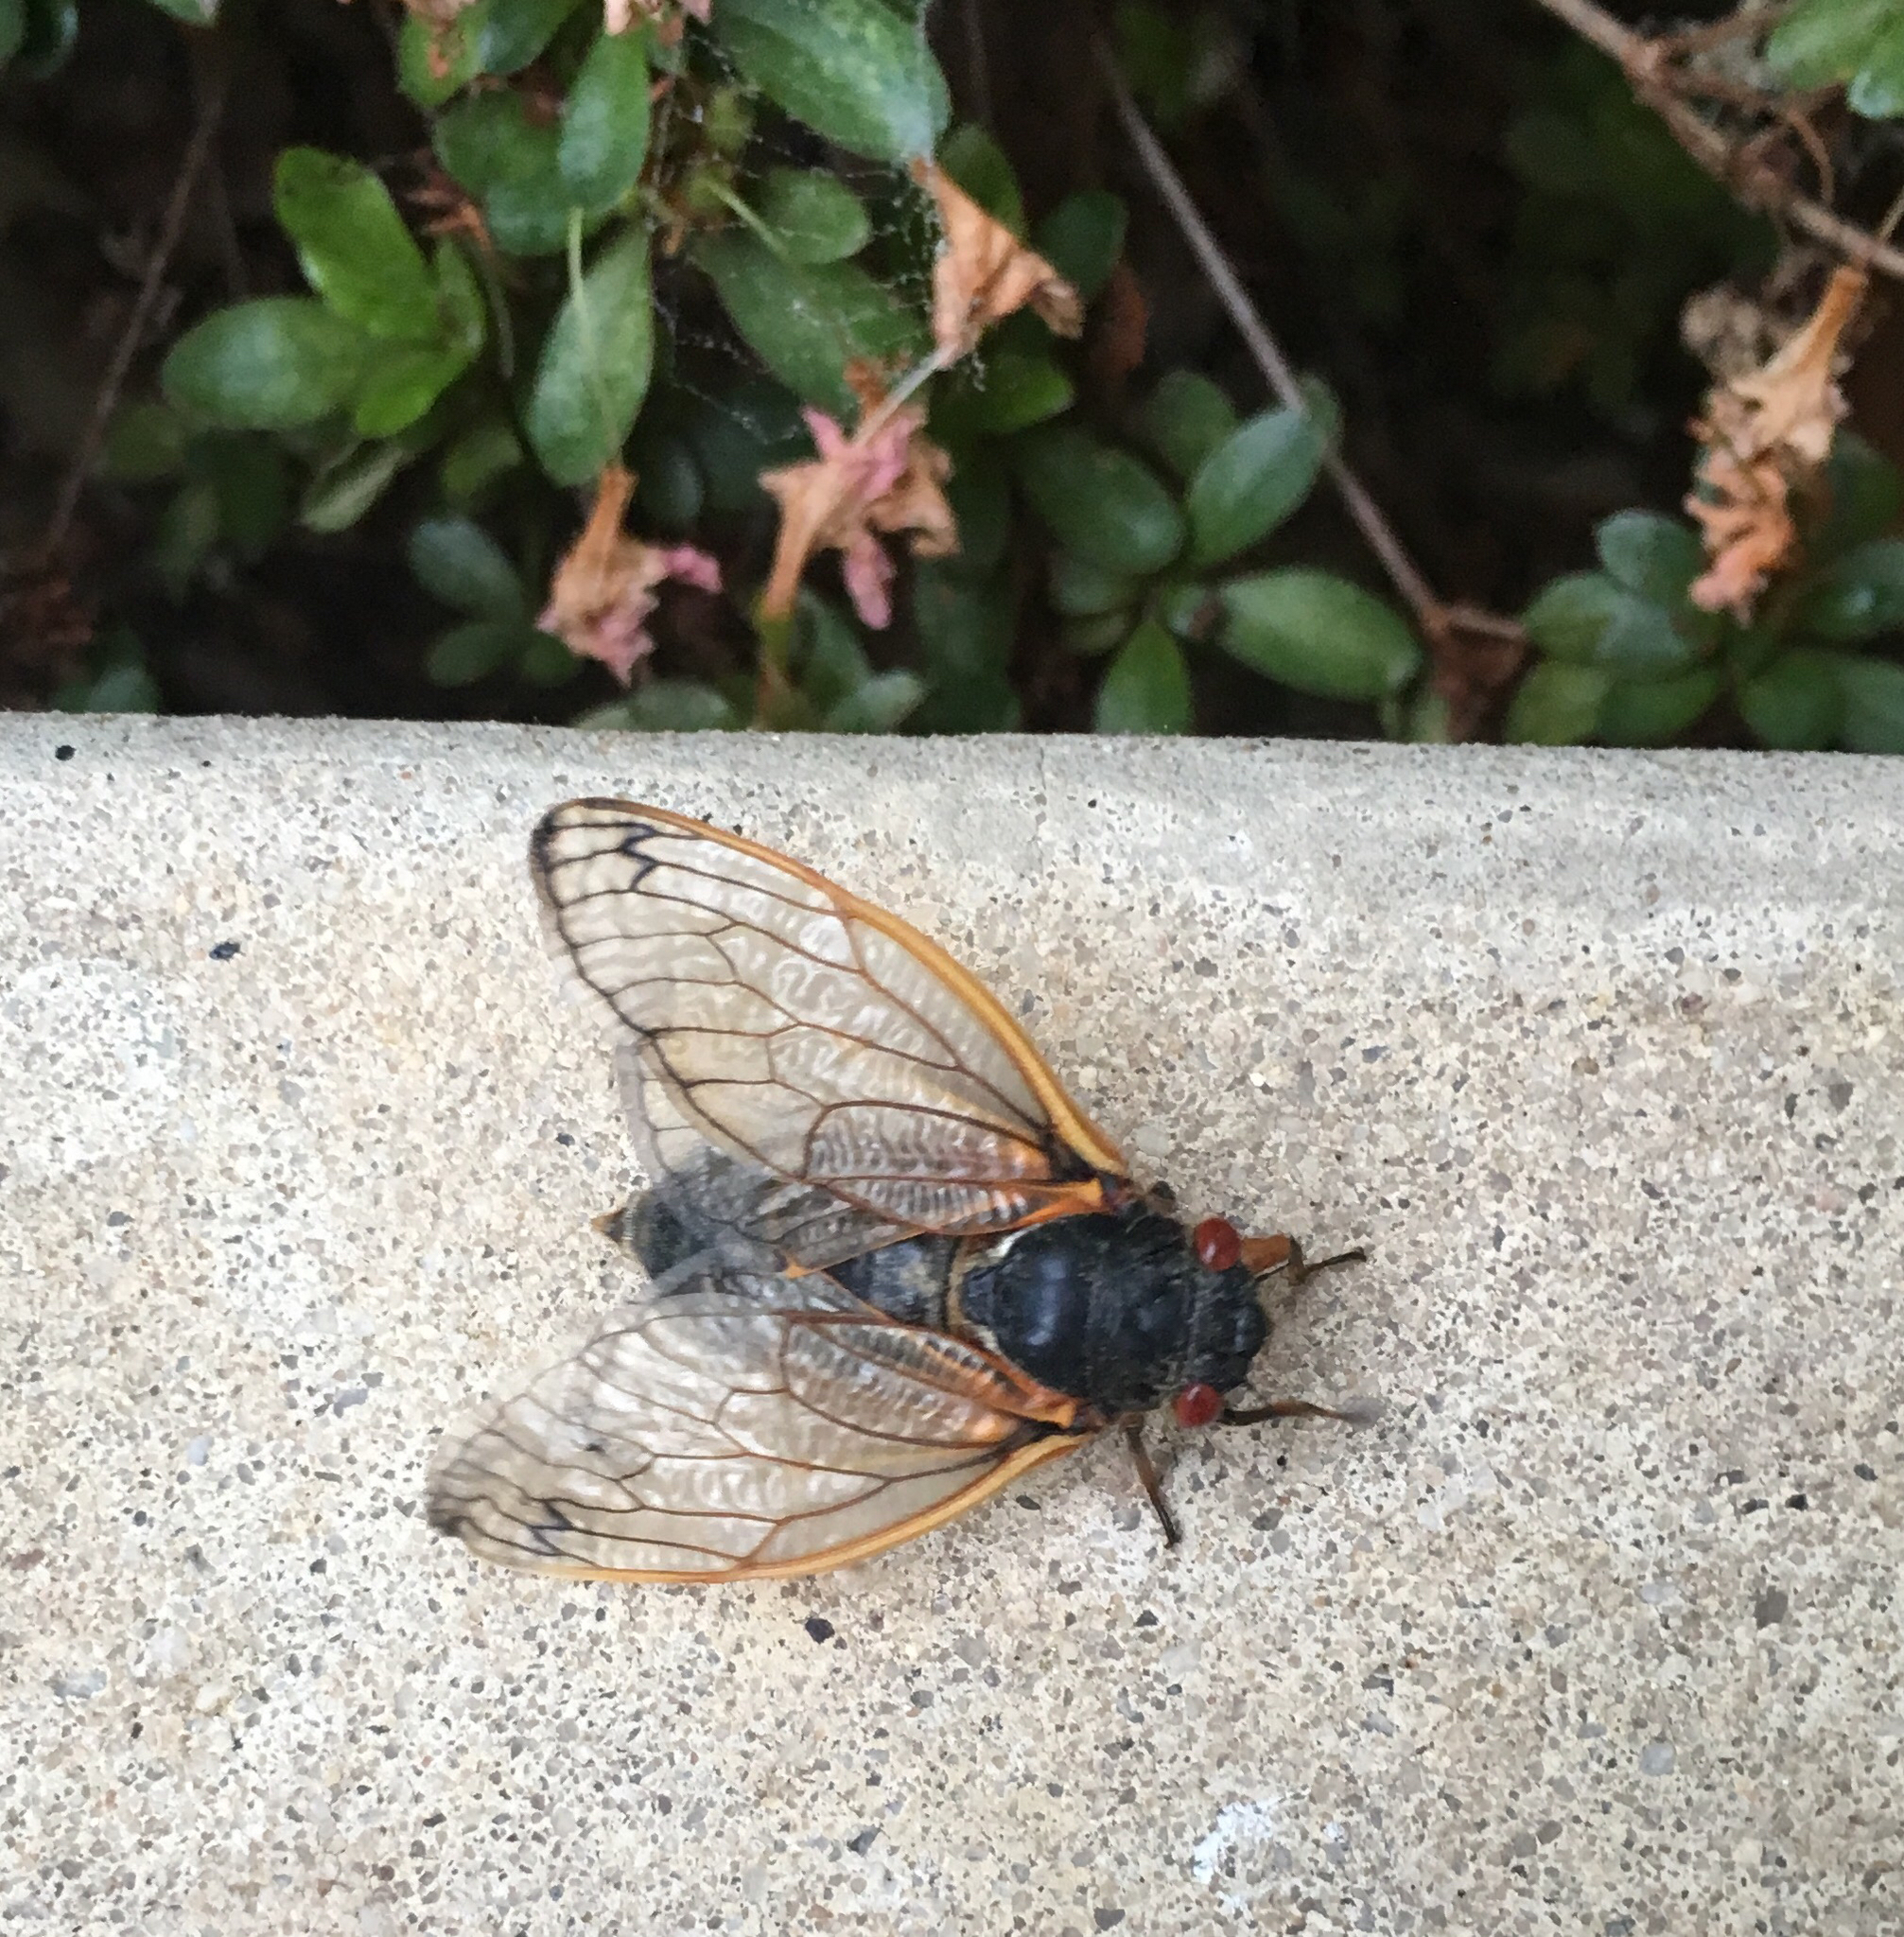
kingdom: Animalia
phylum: Arthropoda
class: Insecta
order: Hemiptera
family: Cicadidae
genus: Magicicada
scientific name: Magicicada
